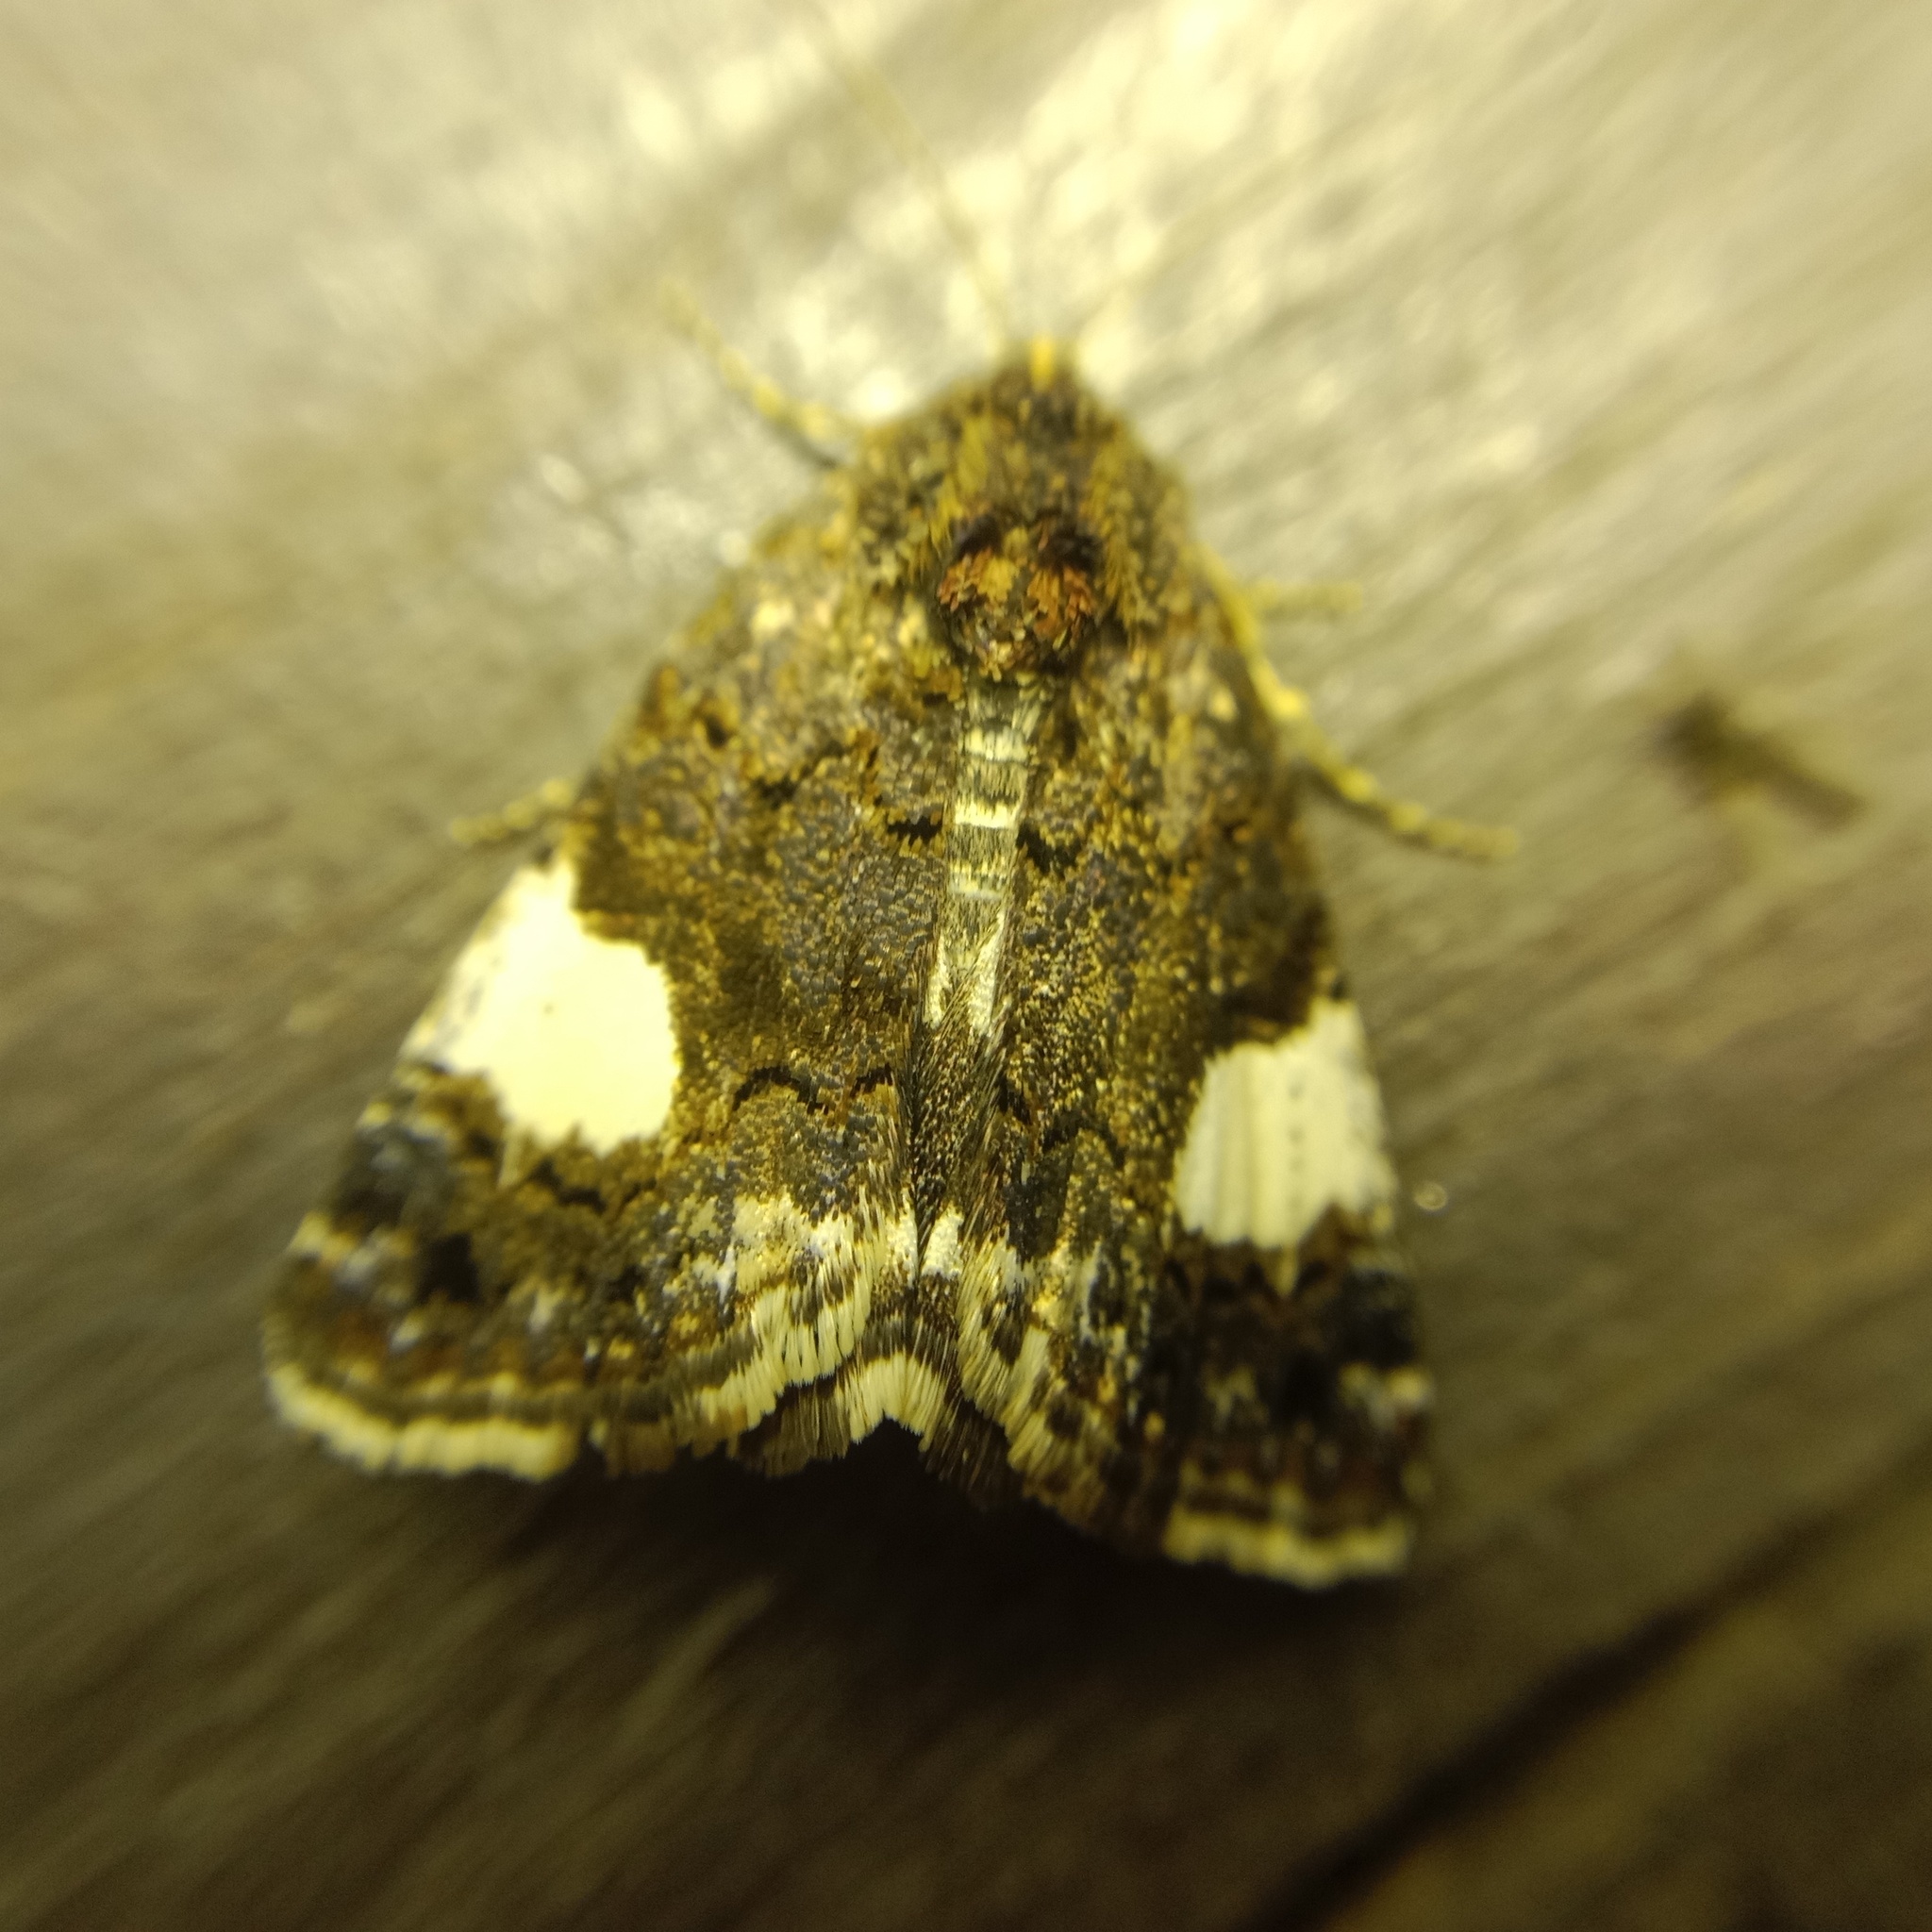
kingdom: Animalia
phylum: Arthropoda
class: Insecta
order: Lepidoptera
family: Erebidae
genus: Tyta
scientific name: Tyta luctuosa
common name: Four-spotted
